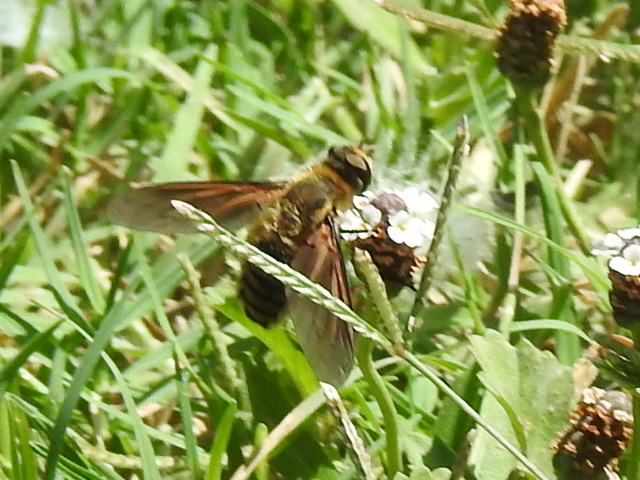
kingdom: Animalia
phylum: Arthropoda
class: Insecta
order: Diptera
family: Bombyliidae
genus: Poecilanthrax
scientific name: Poecilanthrax lucifer
